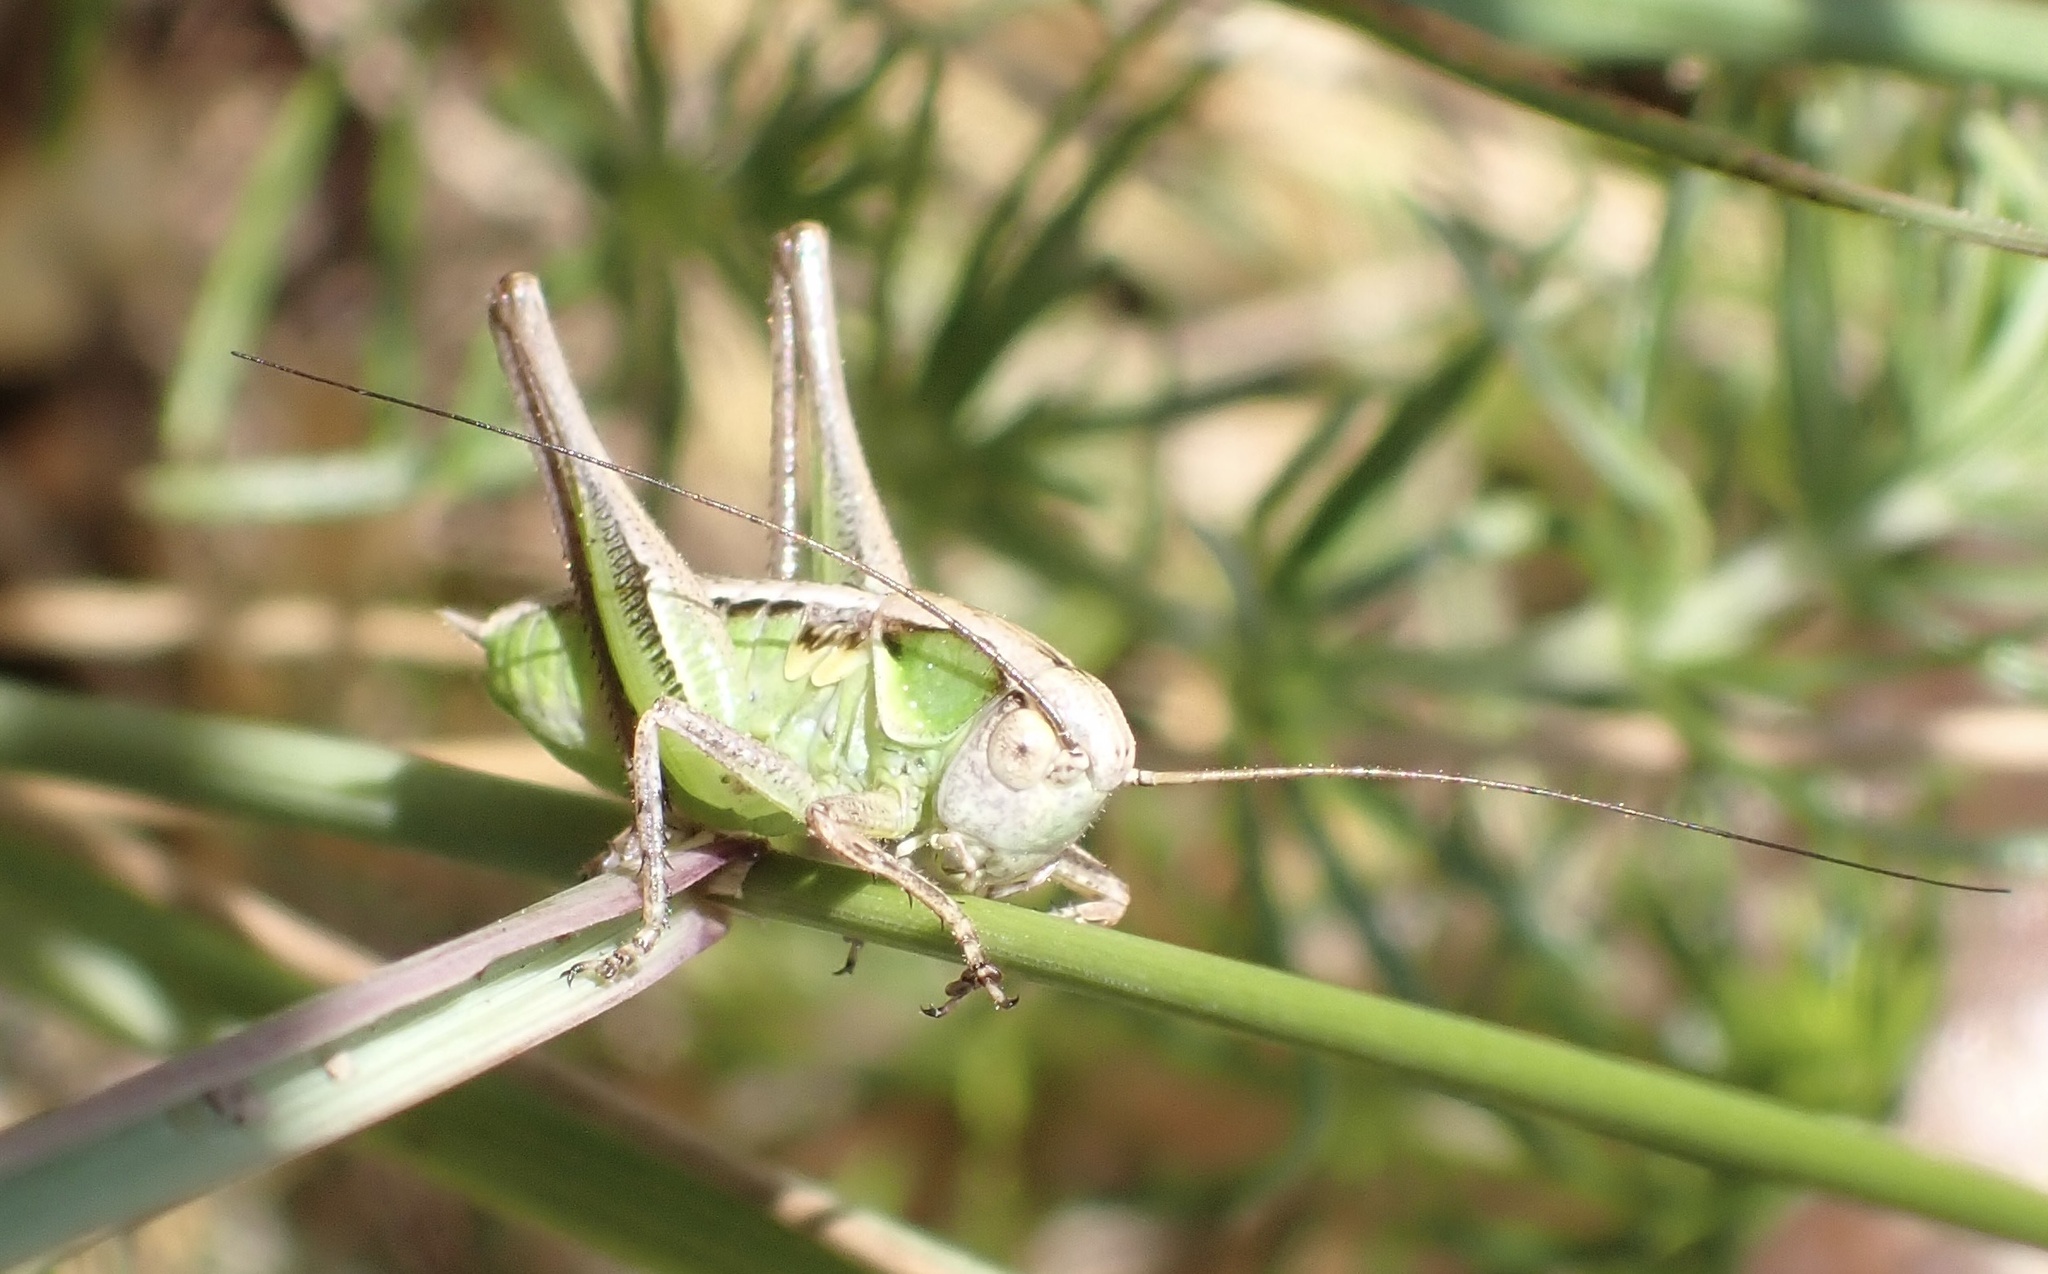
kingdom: Animalia
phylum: Arthropoda
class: Insecta
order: Orthoptera
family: Tettigoniidae
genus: Platycleis
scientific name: Platycleis albopunctata
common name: Grey bush-cricket
